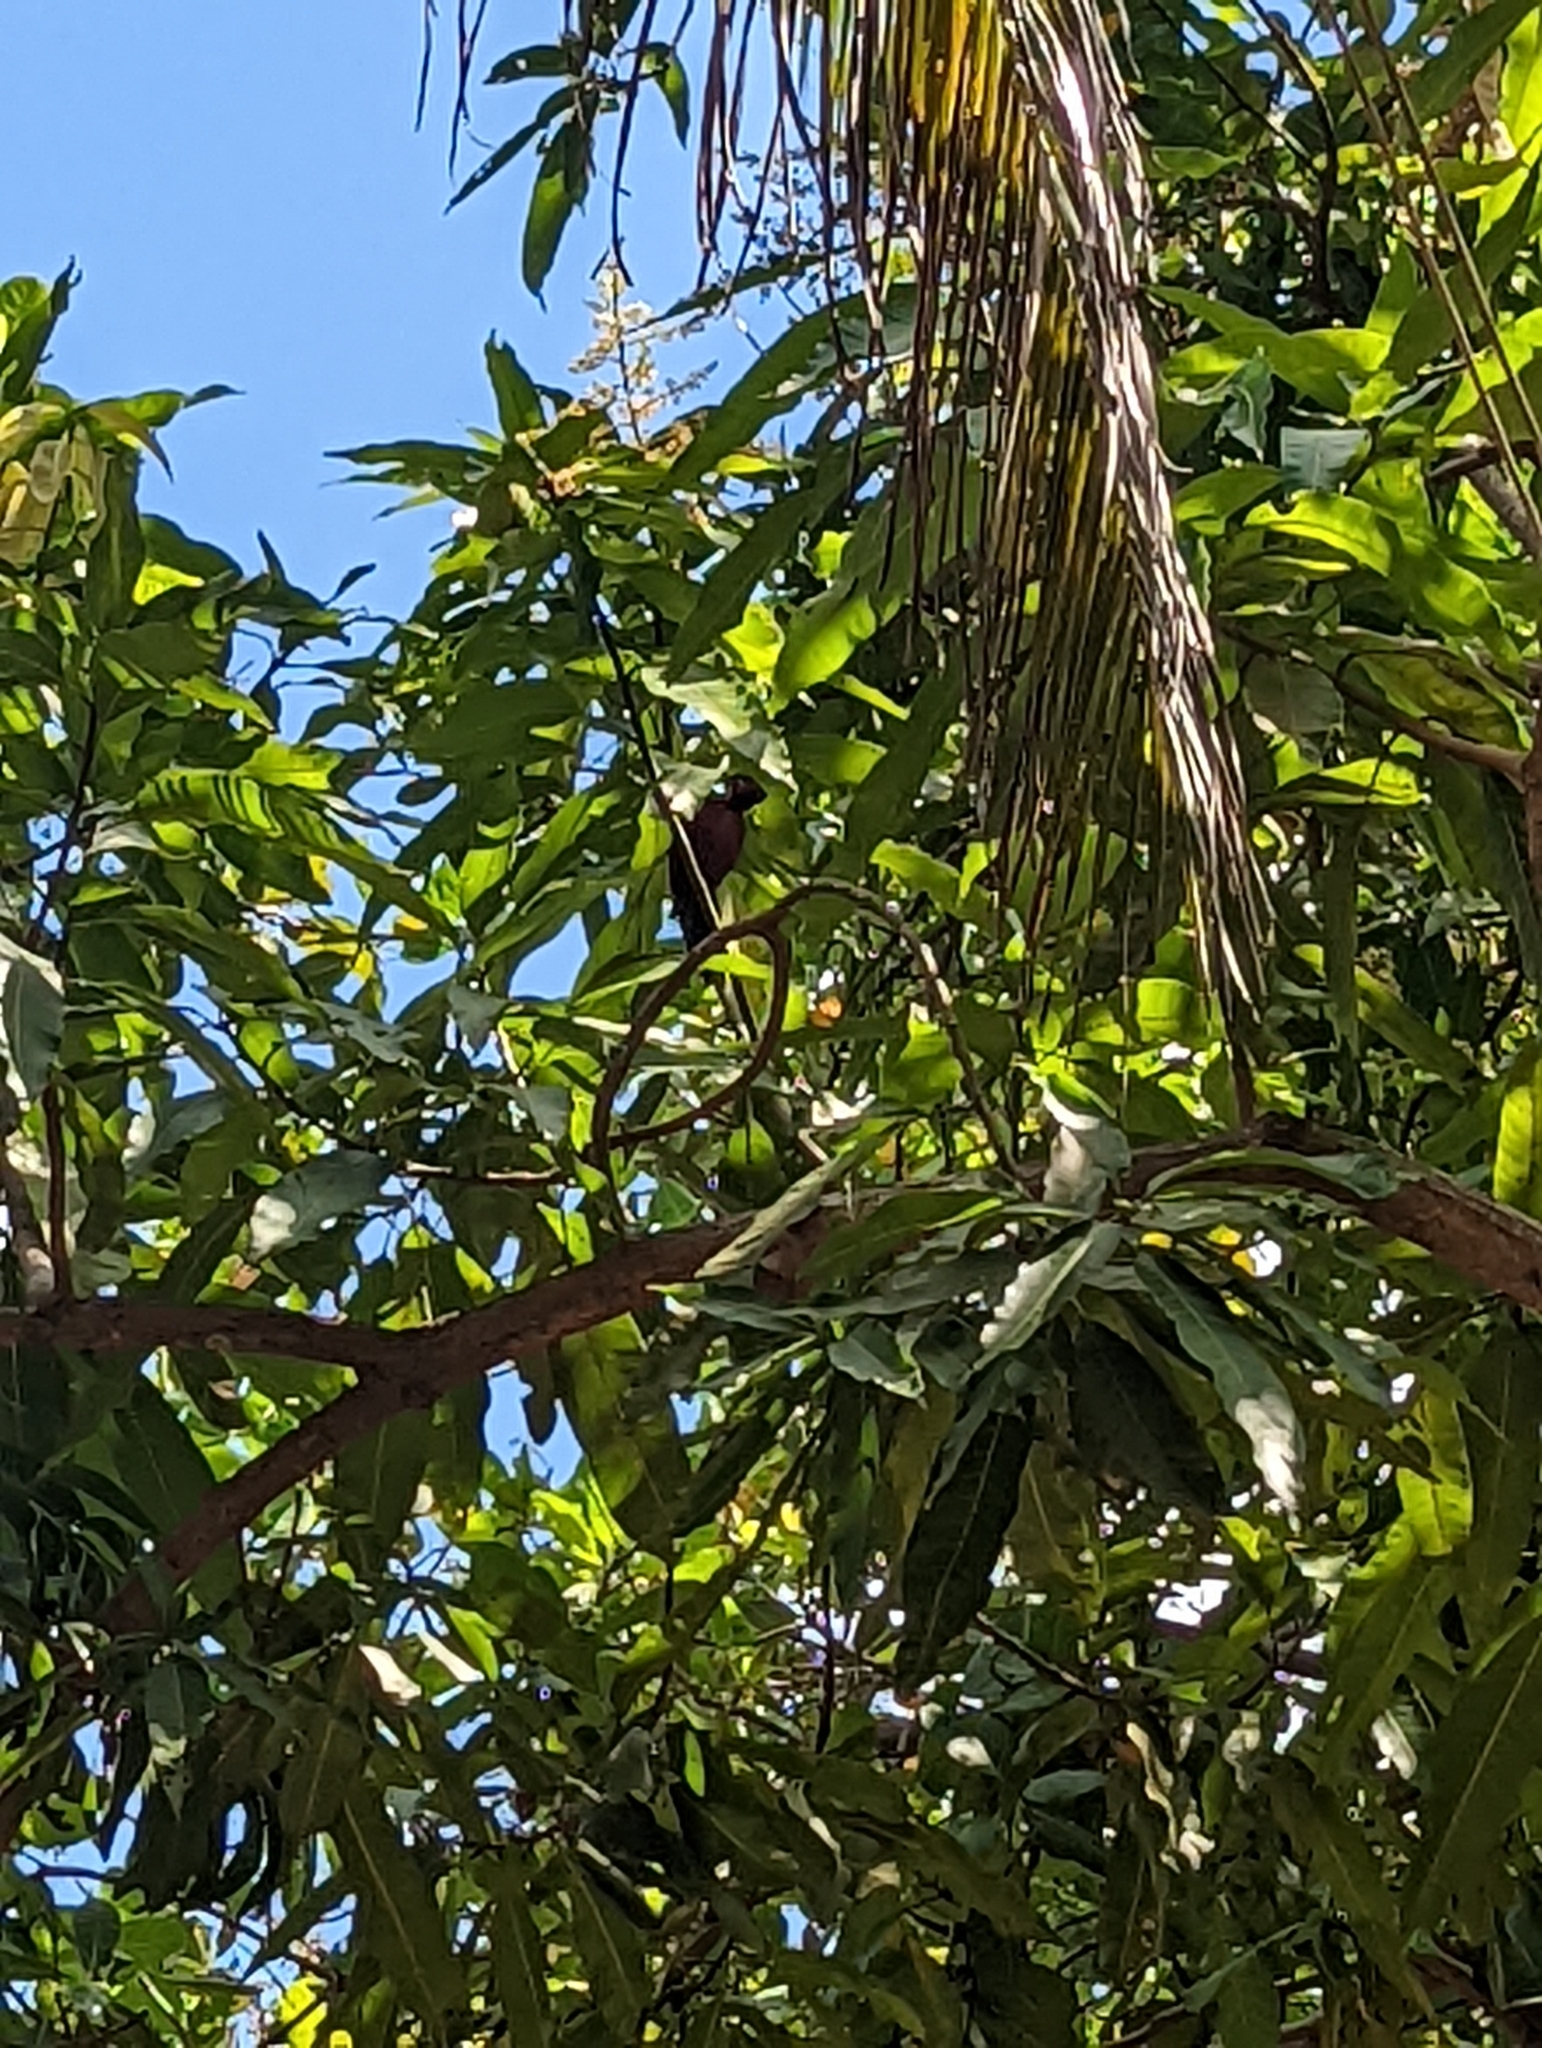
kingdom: Animalia
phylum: Chordata
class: Aves
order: Piciformes
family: Picidae
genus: Dinopium
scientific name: Dinopium psarodes
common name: Red-backed flameback
